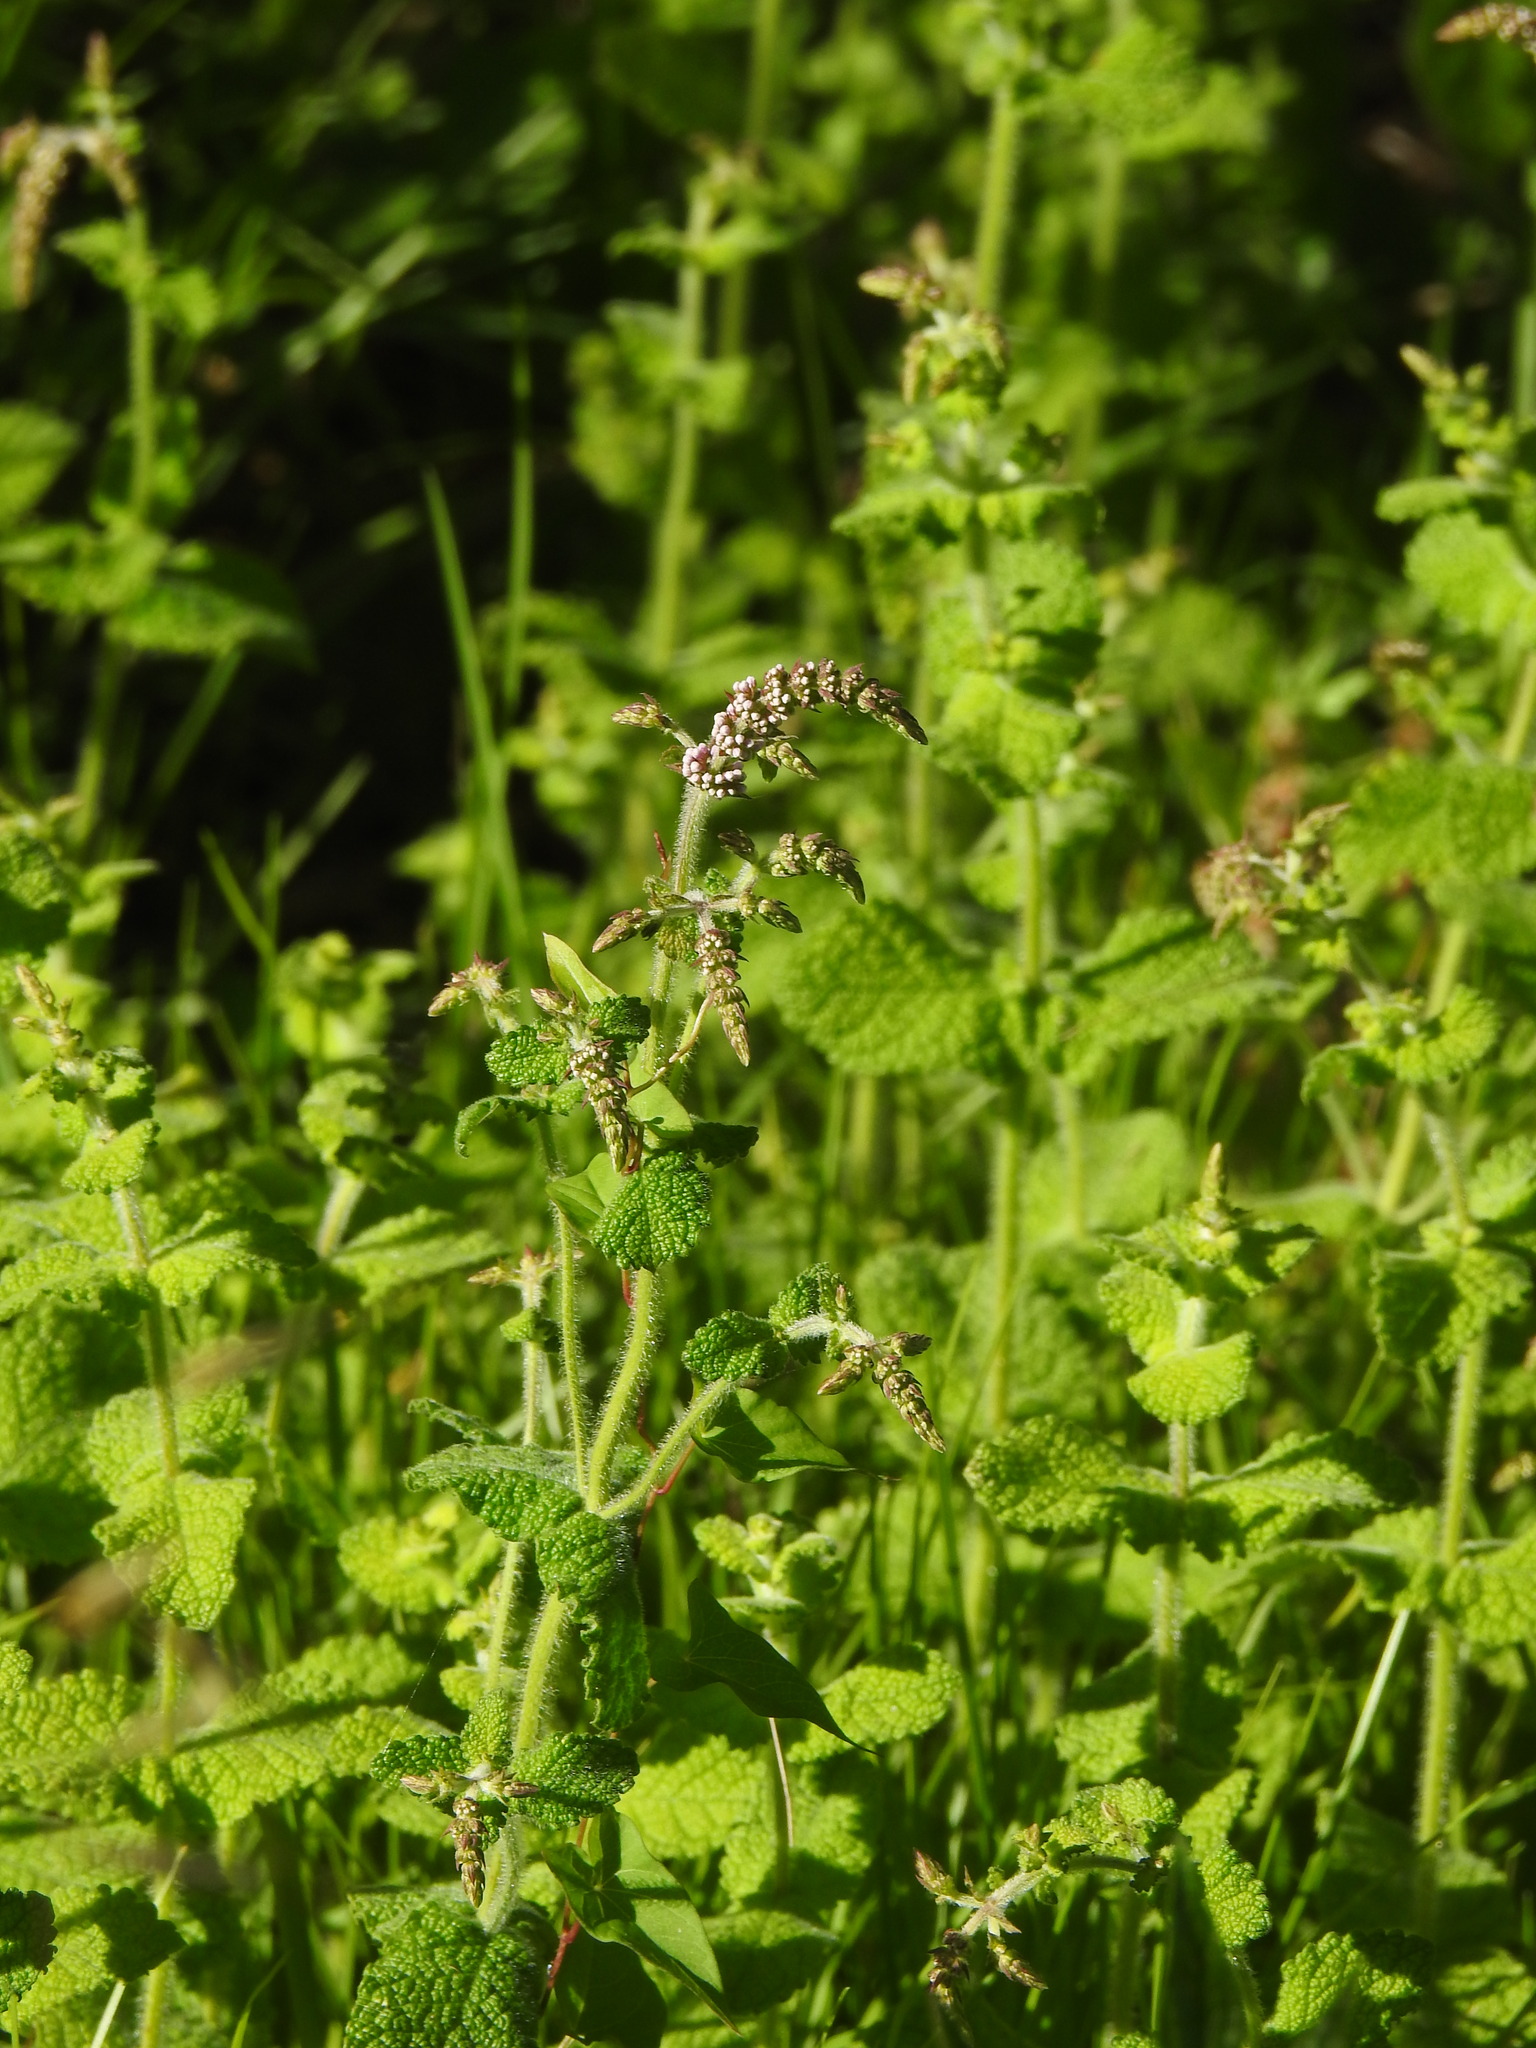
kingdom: Plantae
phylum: Tracheophyta
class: Magnoliopsida
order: Lamiales
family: Lamiaceae
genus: Mentha
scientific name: Mentha suaveolens
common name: Apple mint
